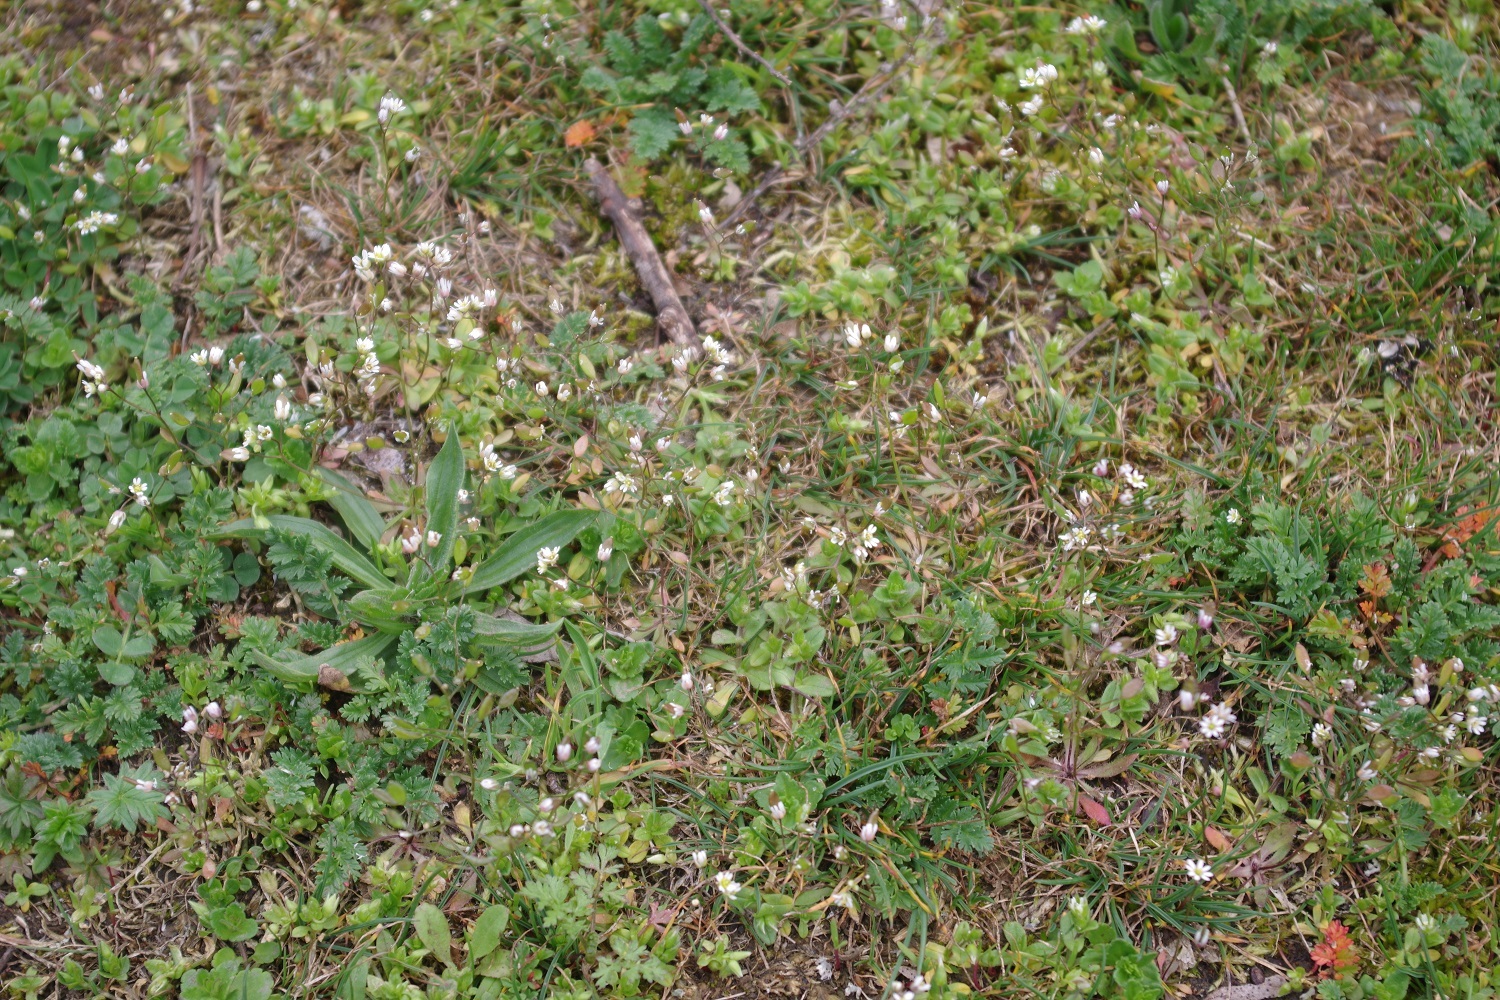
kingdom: Plantae
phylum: Tracheophyta
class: Magnoliopsida
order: Brassicales
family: Brassicaceae
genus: Draba
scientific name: Draba verna
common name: Spring draba
